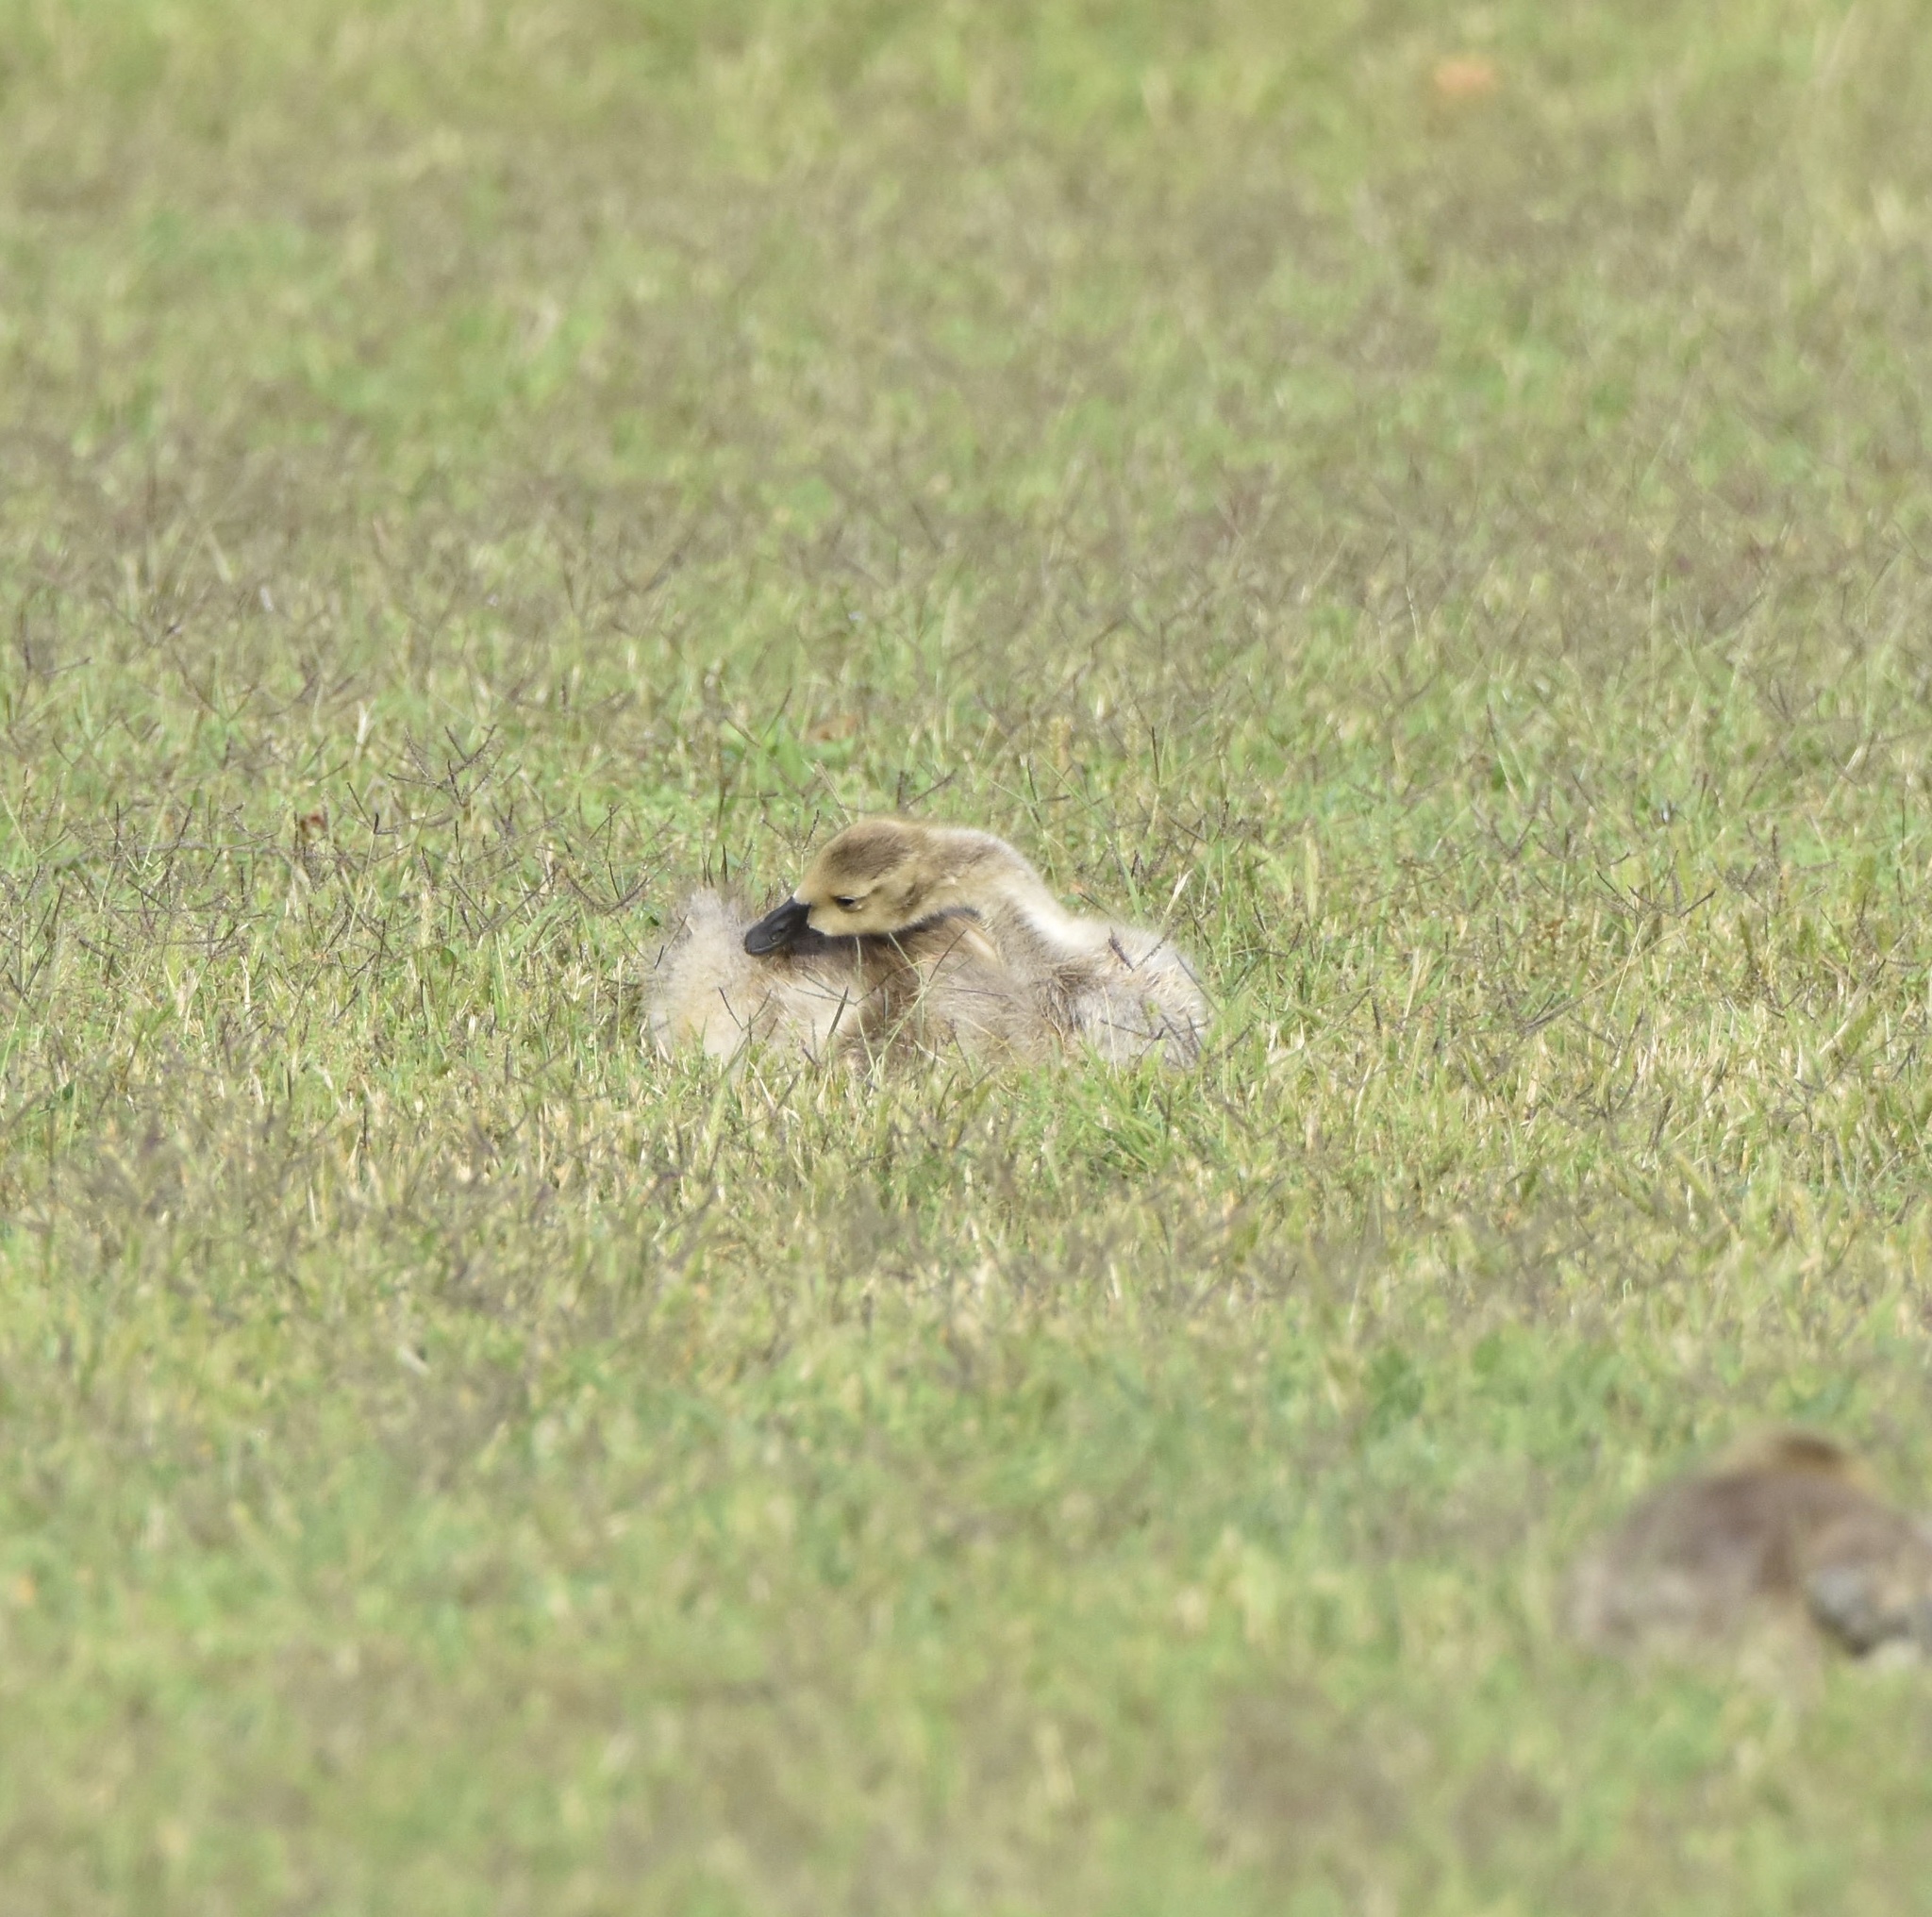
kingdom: Animalia
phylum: Chordata
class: Aves
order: Anseriformes
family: Anatidae
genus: Branta
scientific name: Branta canadensis
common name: Canada goose
